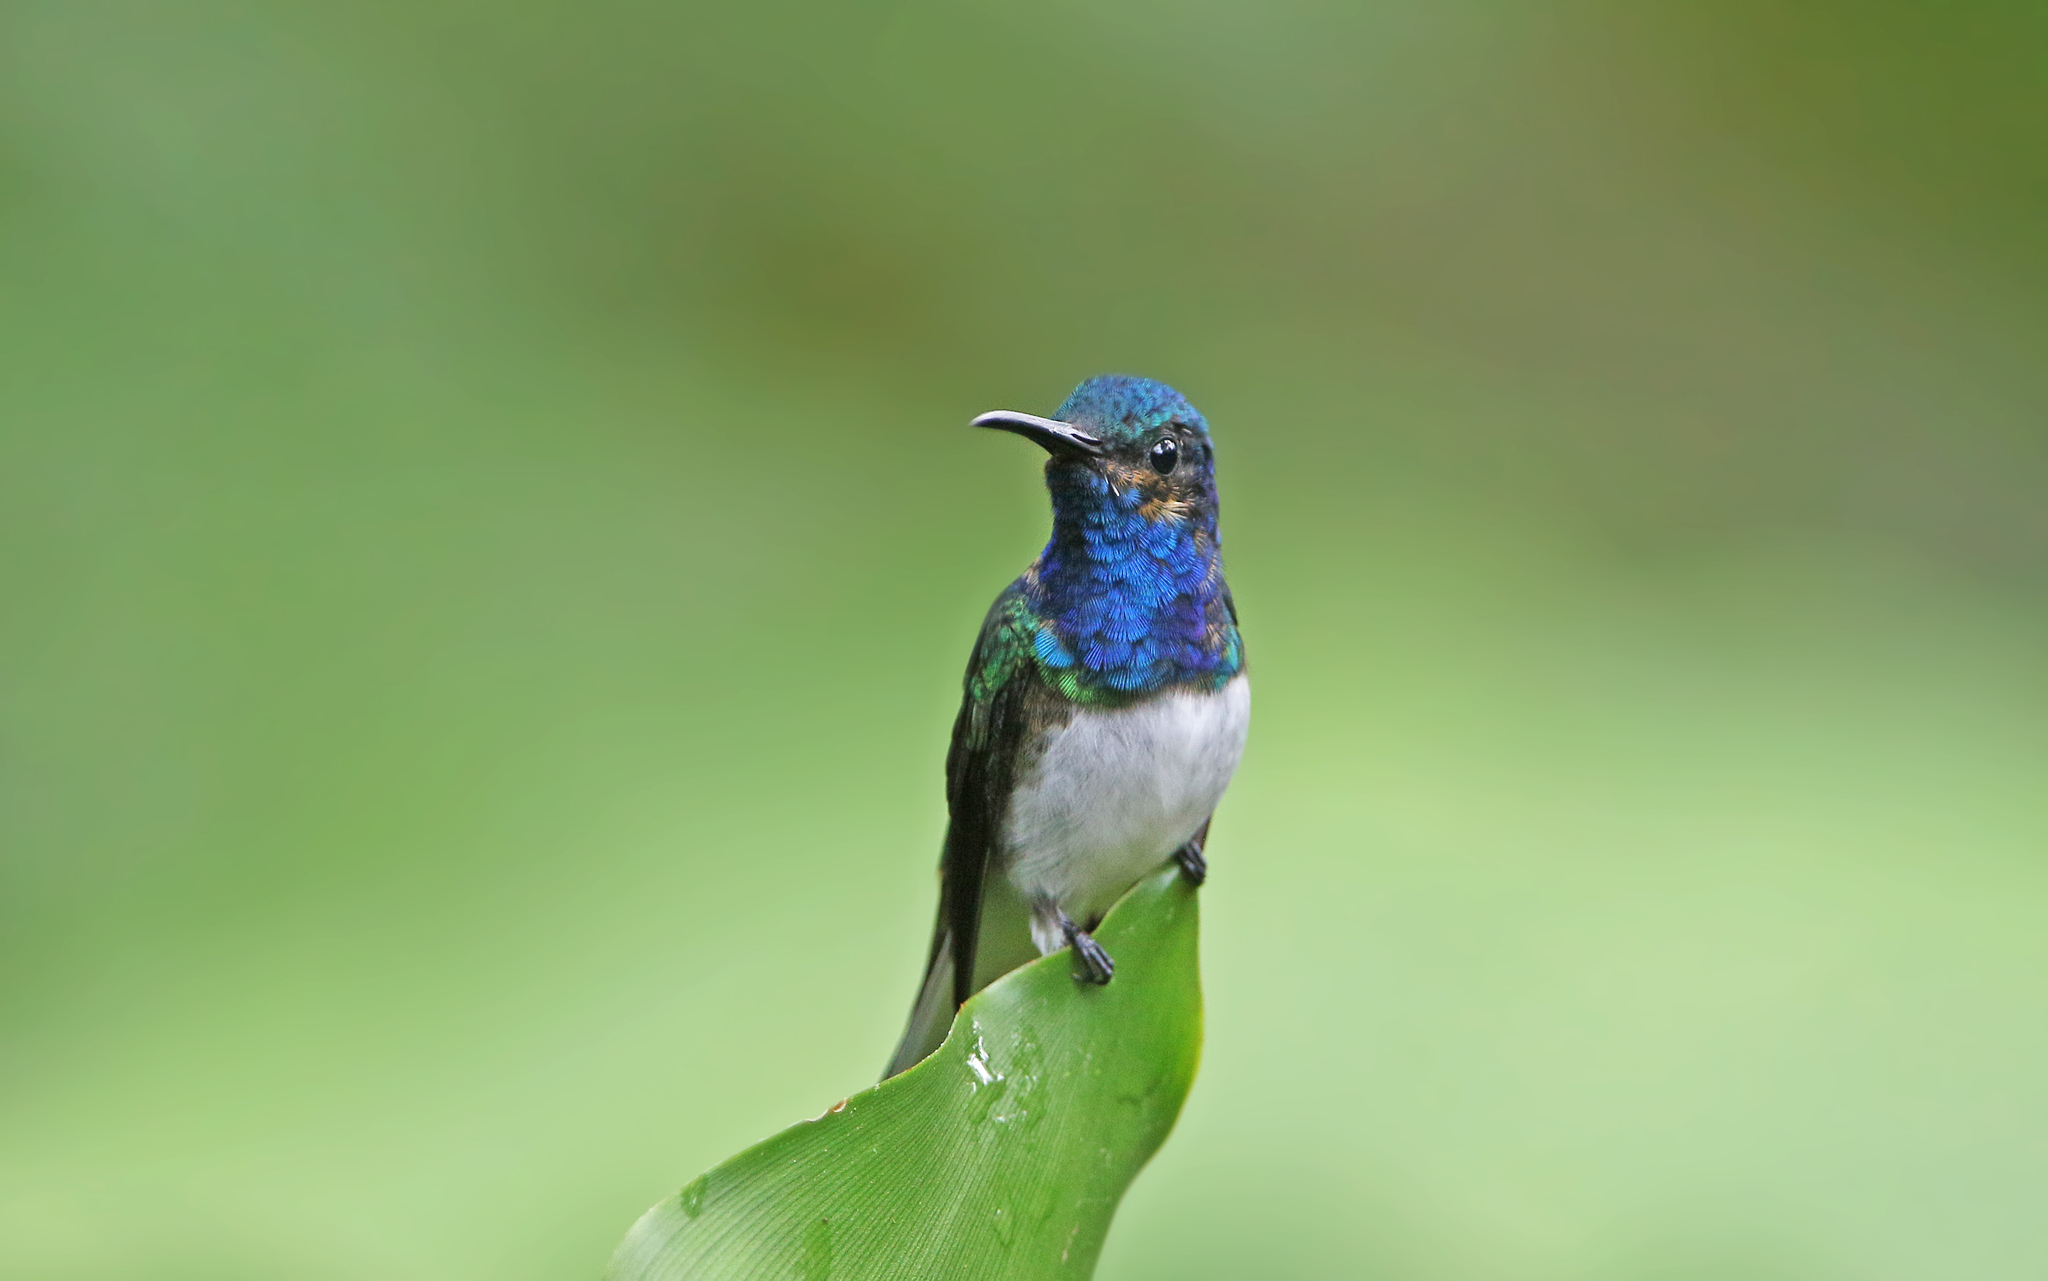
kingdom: Animalia
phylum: Chordata
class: Aves
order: Apodiformes
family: Trochilidae
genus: Florisuga
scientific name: Florisuga mellivora
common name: White-necked jacobin
